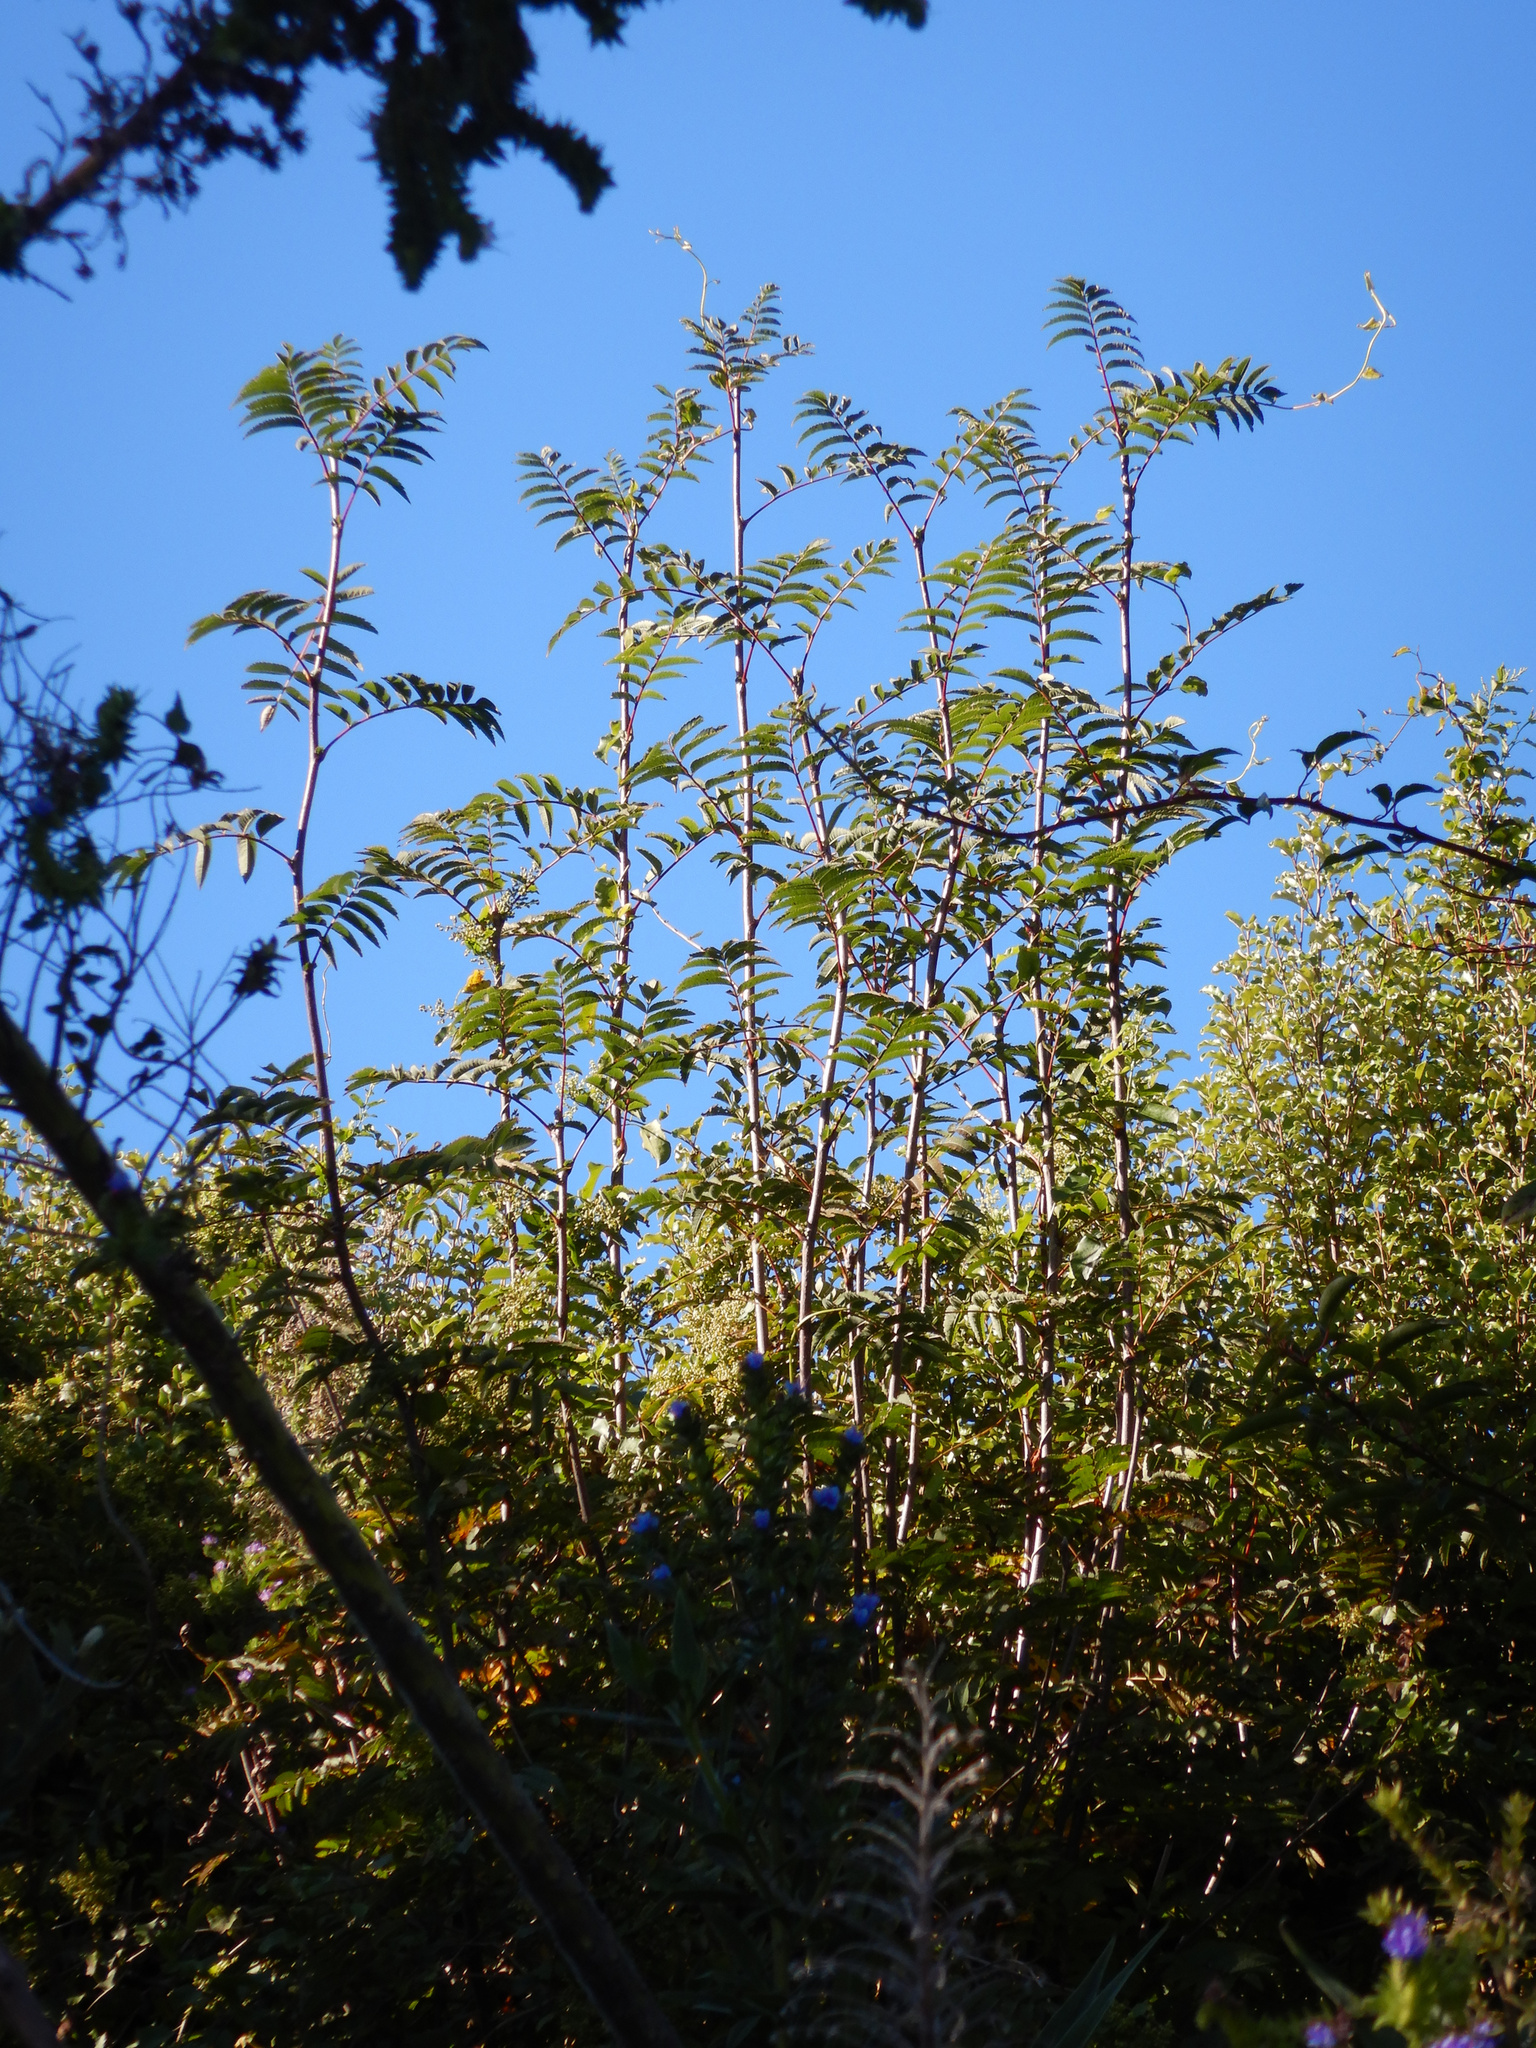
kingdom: Plantae
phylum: Tracheophyta
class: Magnoliopsida
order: Rosales
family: Rosaceae
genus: Sorbus
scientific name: Sorbus aucuparia
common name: Rowan
